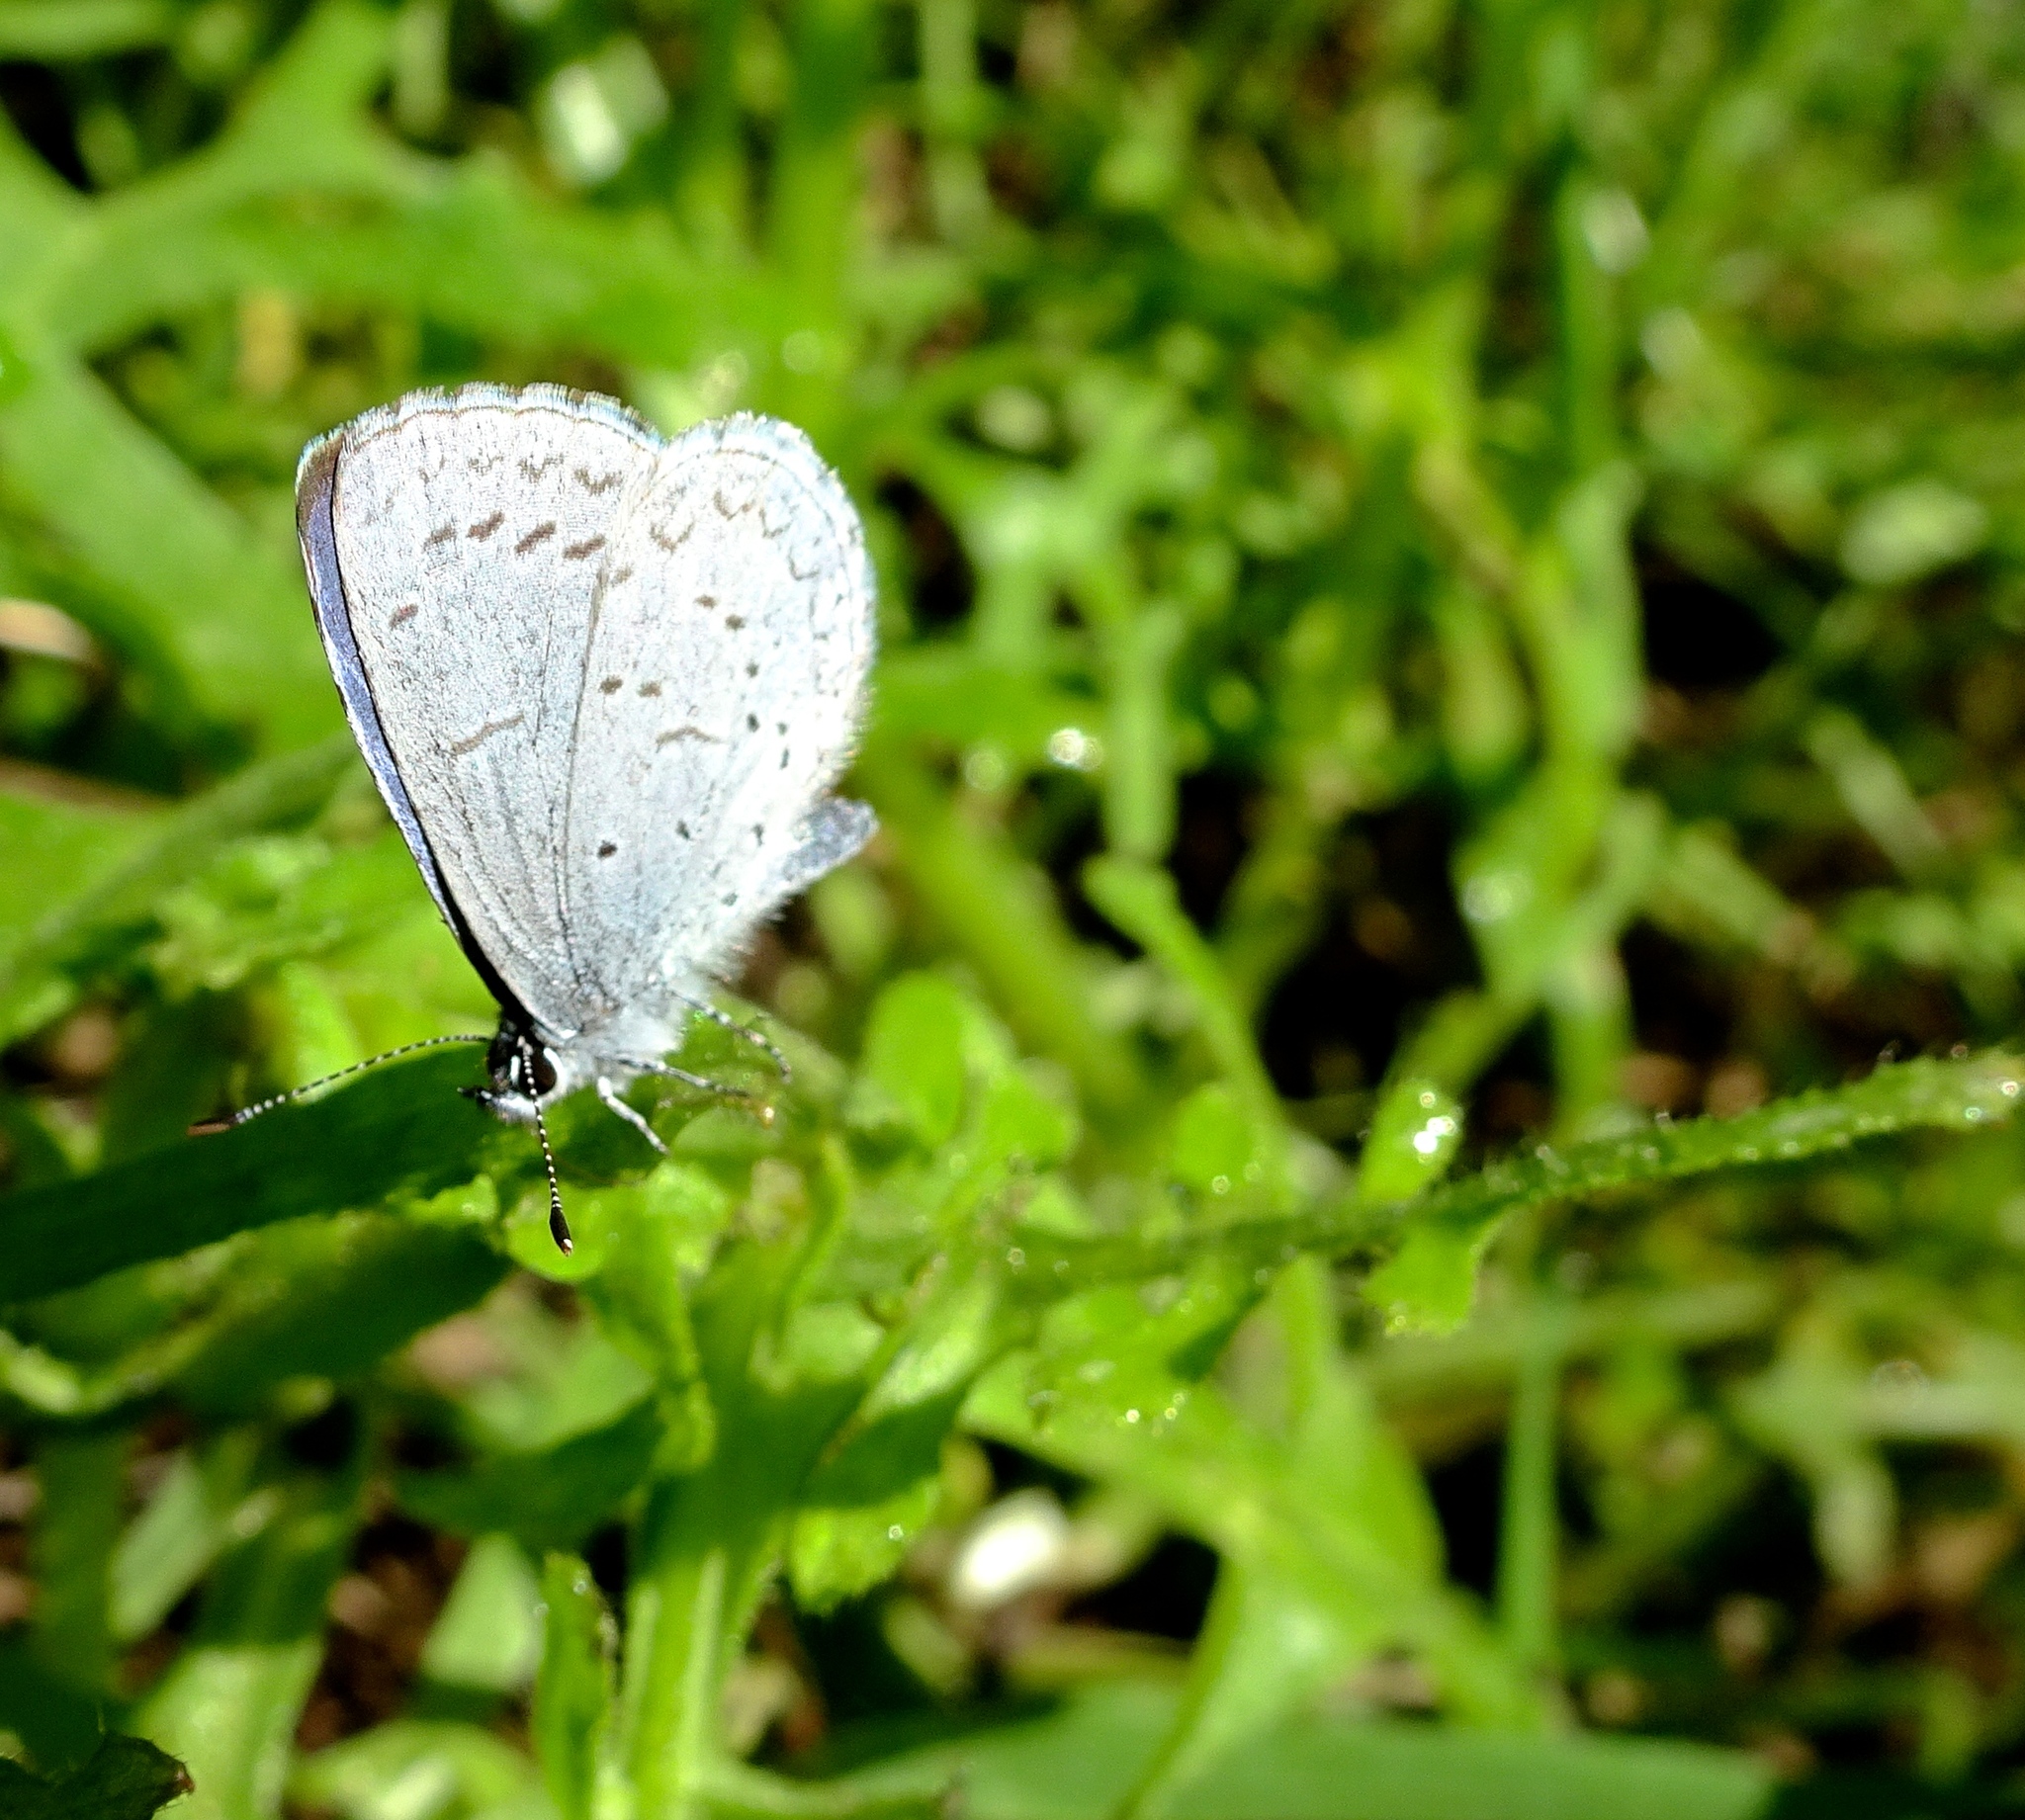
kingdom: Animalia
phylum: Arthropoda
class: Insecta
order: Lepidoptera
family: Lycaenidae
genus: Celastrina
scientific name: Celastrina ladon
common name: Spring azure
